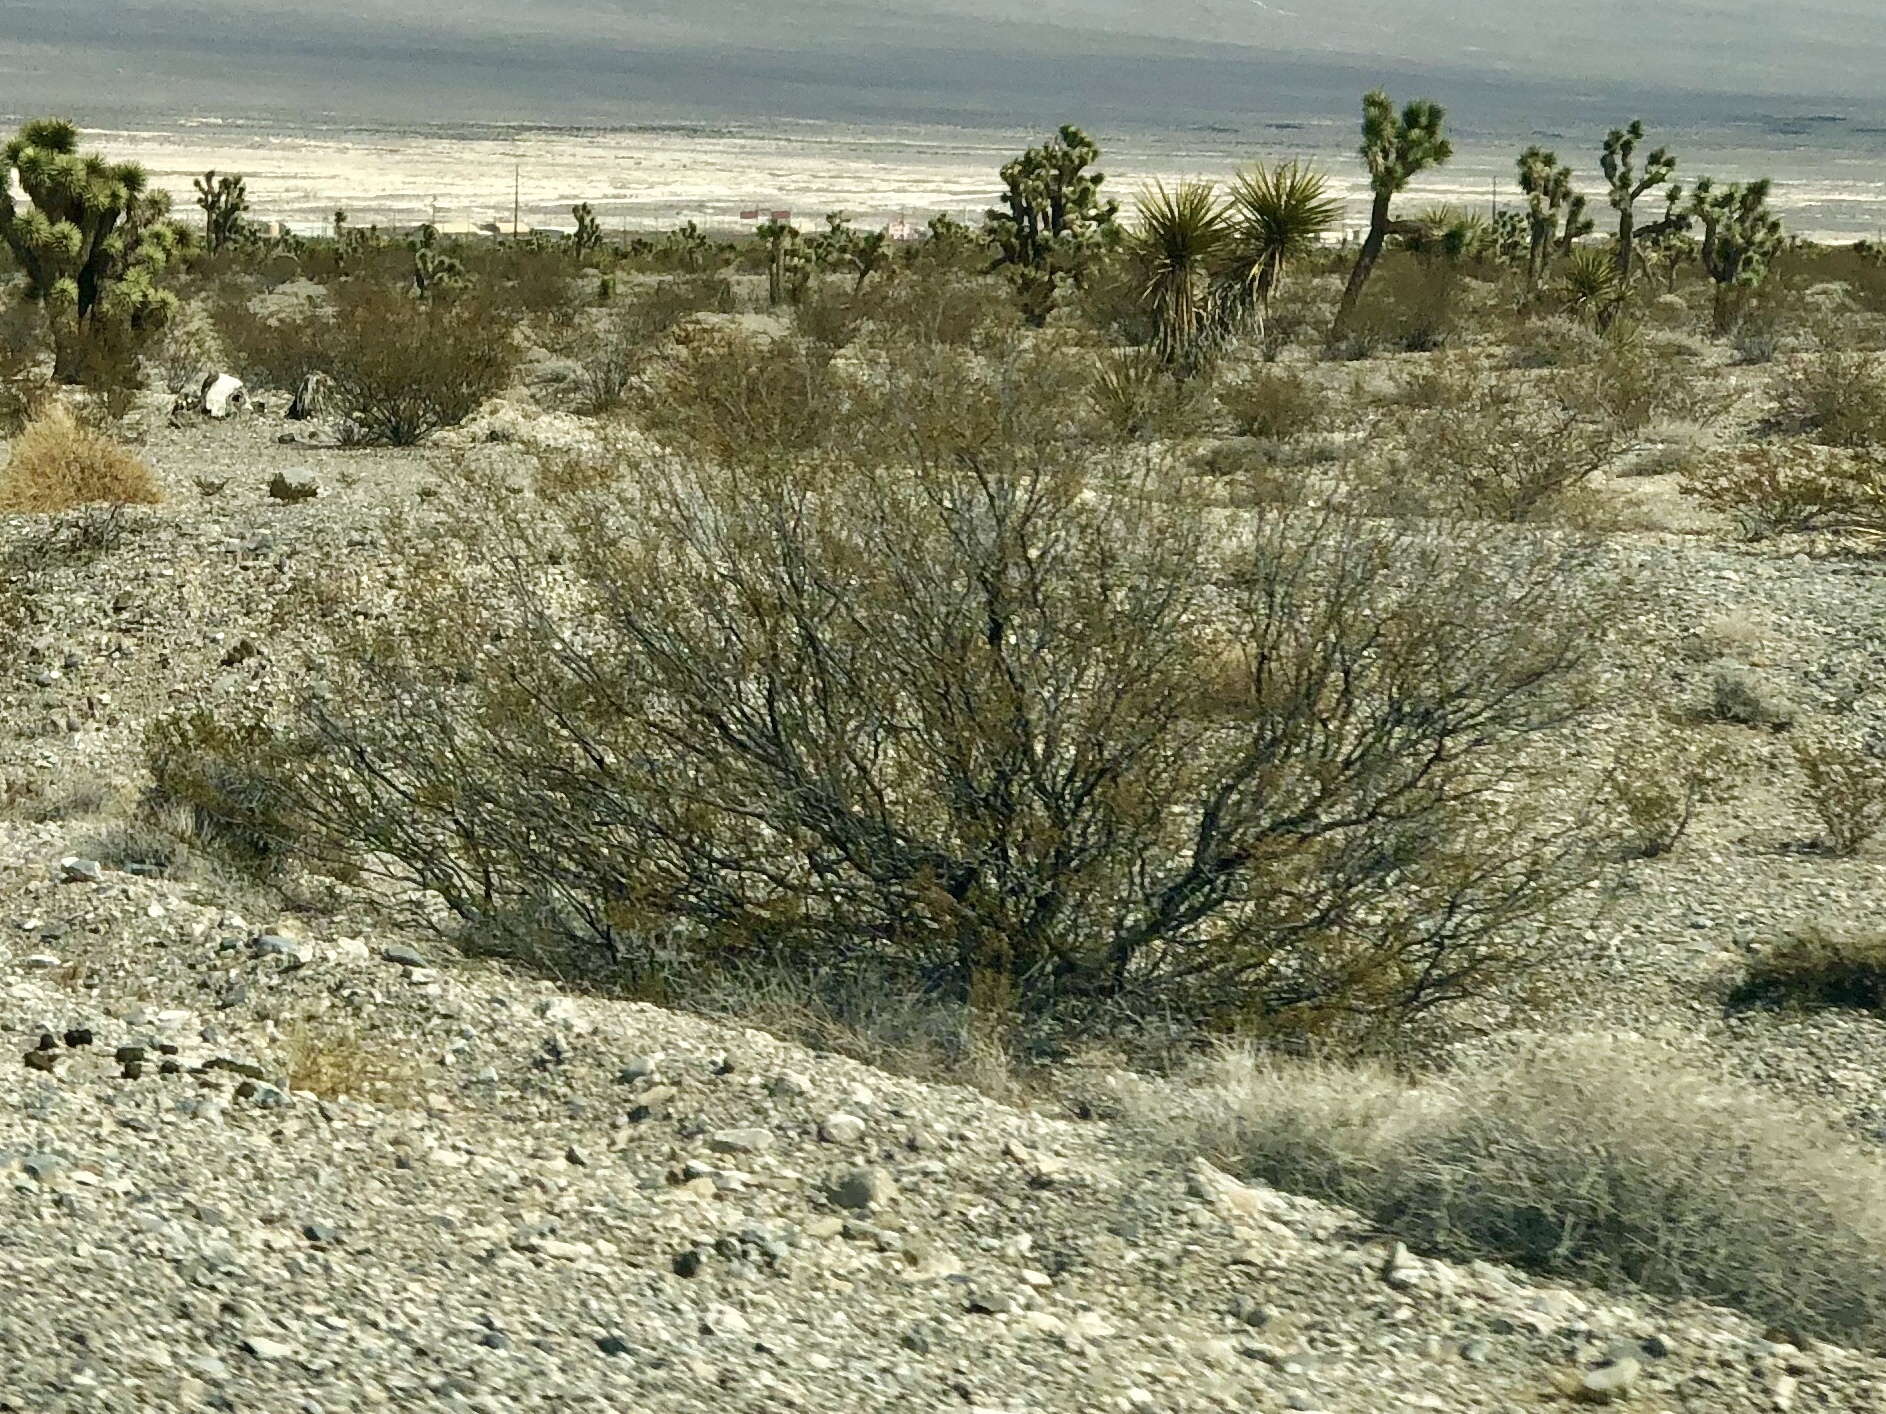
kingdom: Plantae
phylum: Tracheophyta
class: Magnoliopsida
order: Zygophyllales
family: Zygophyllaceae
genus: Larrea
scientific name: Larrea tridentata
